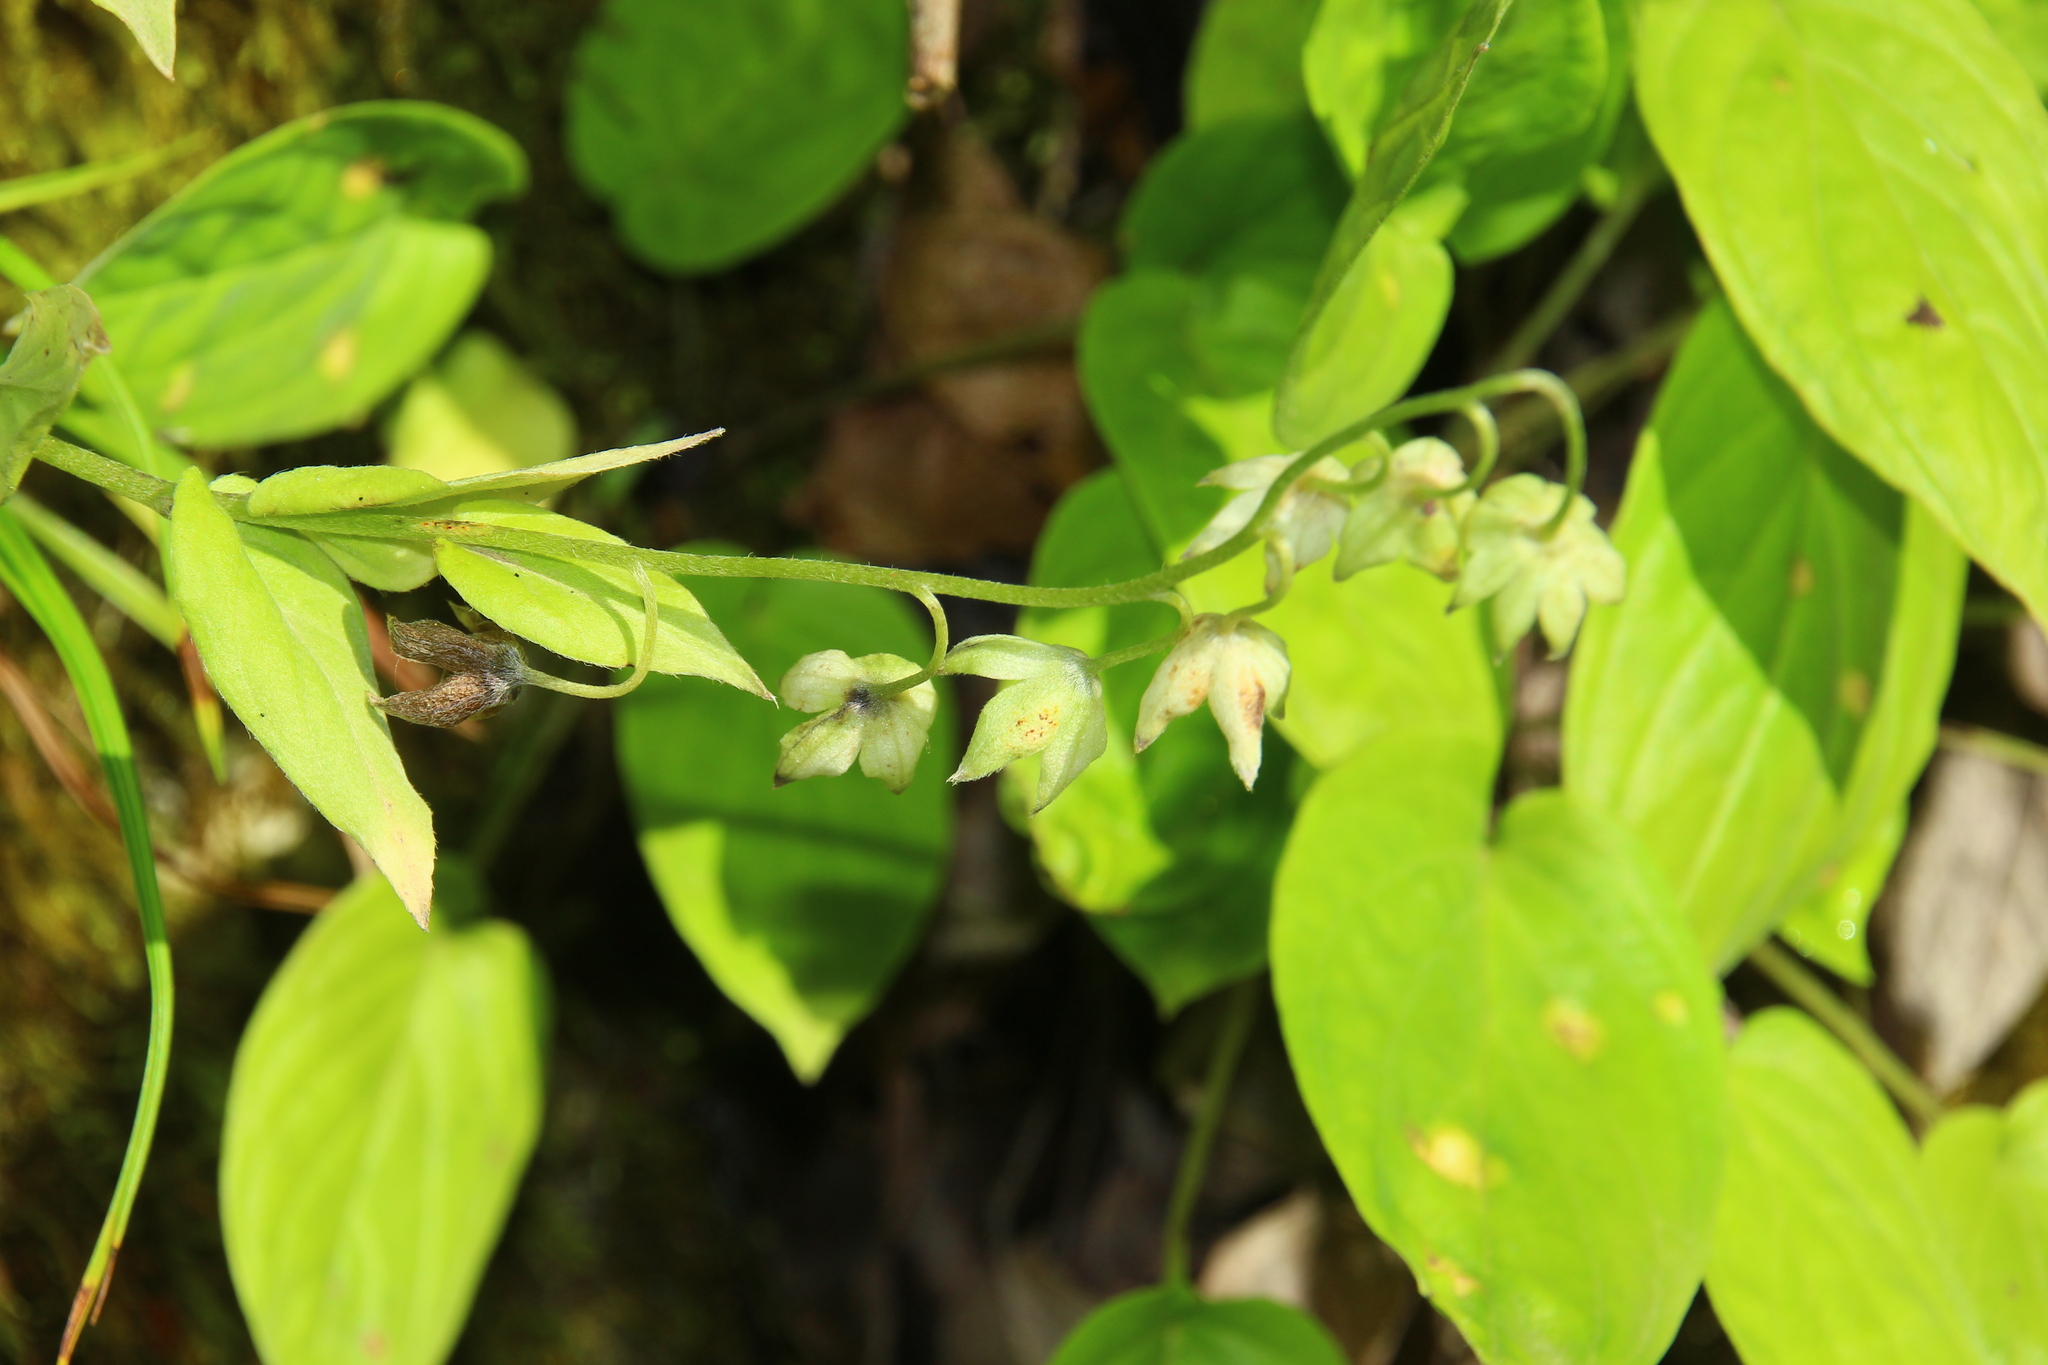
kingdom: Plantae
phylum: Tracheophyta
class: Magnoliopsida
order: Boraginales
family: Boraginaceae
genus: Omphalodes
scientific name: Omphalodes cappadocica
